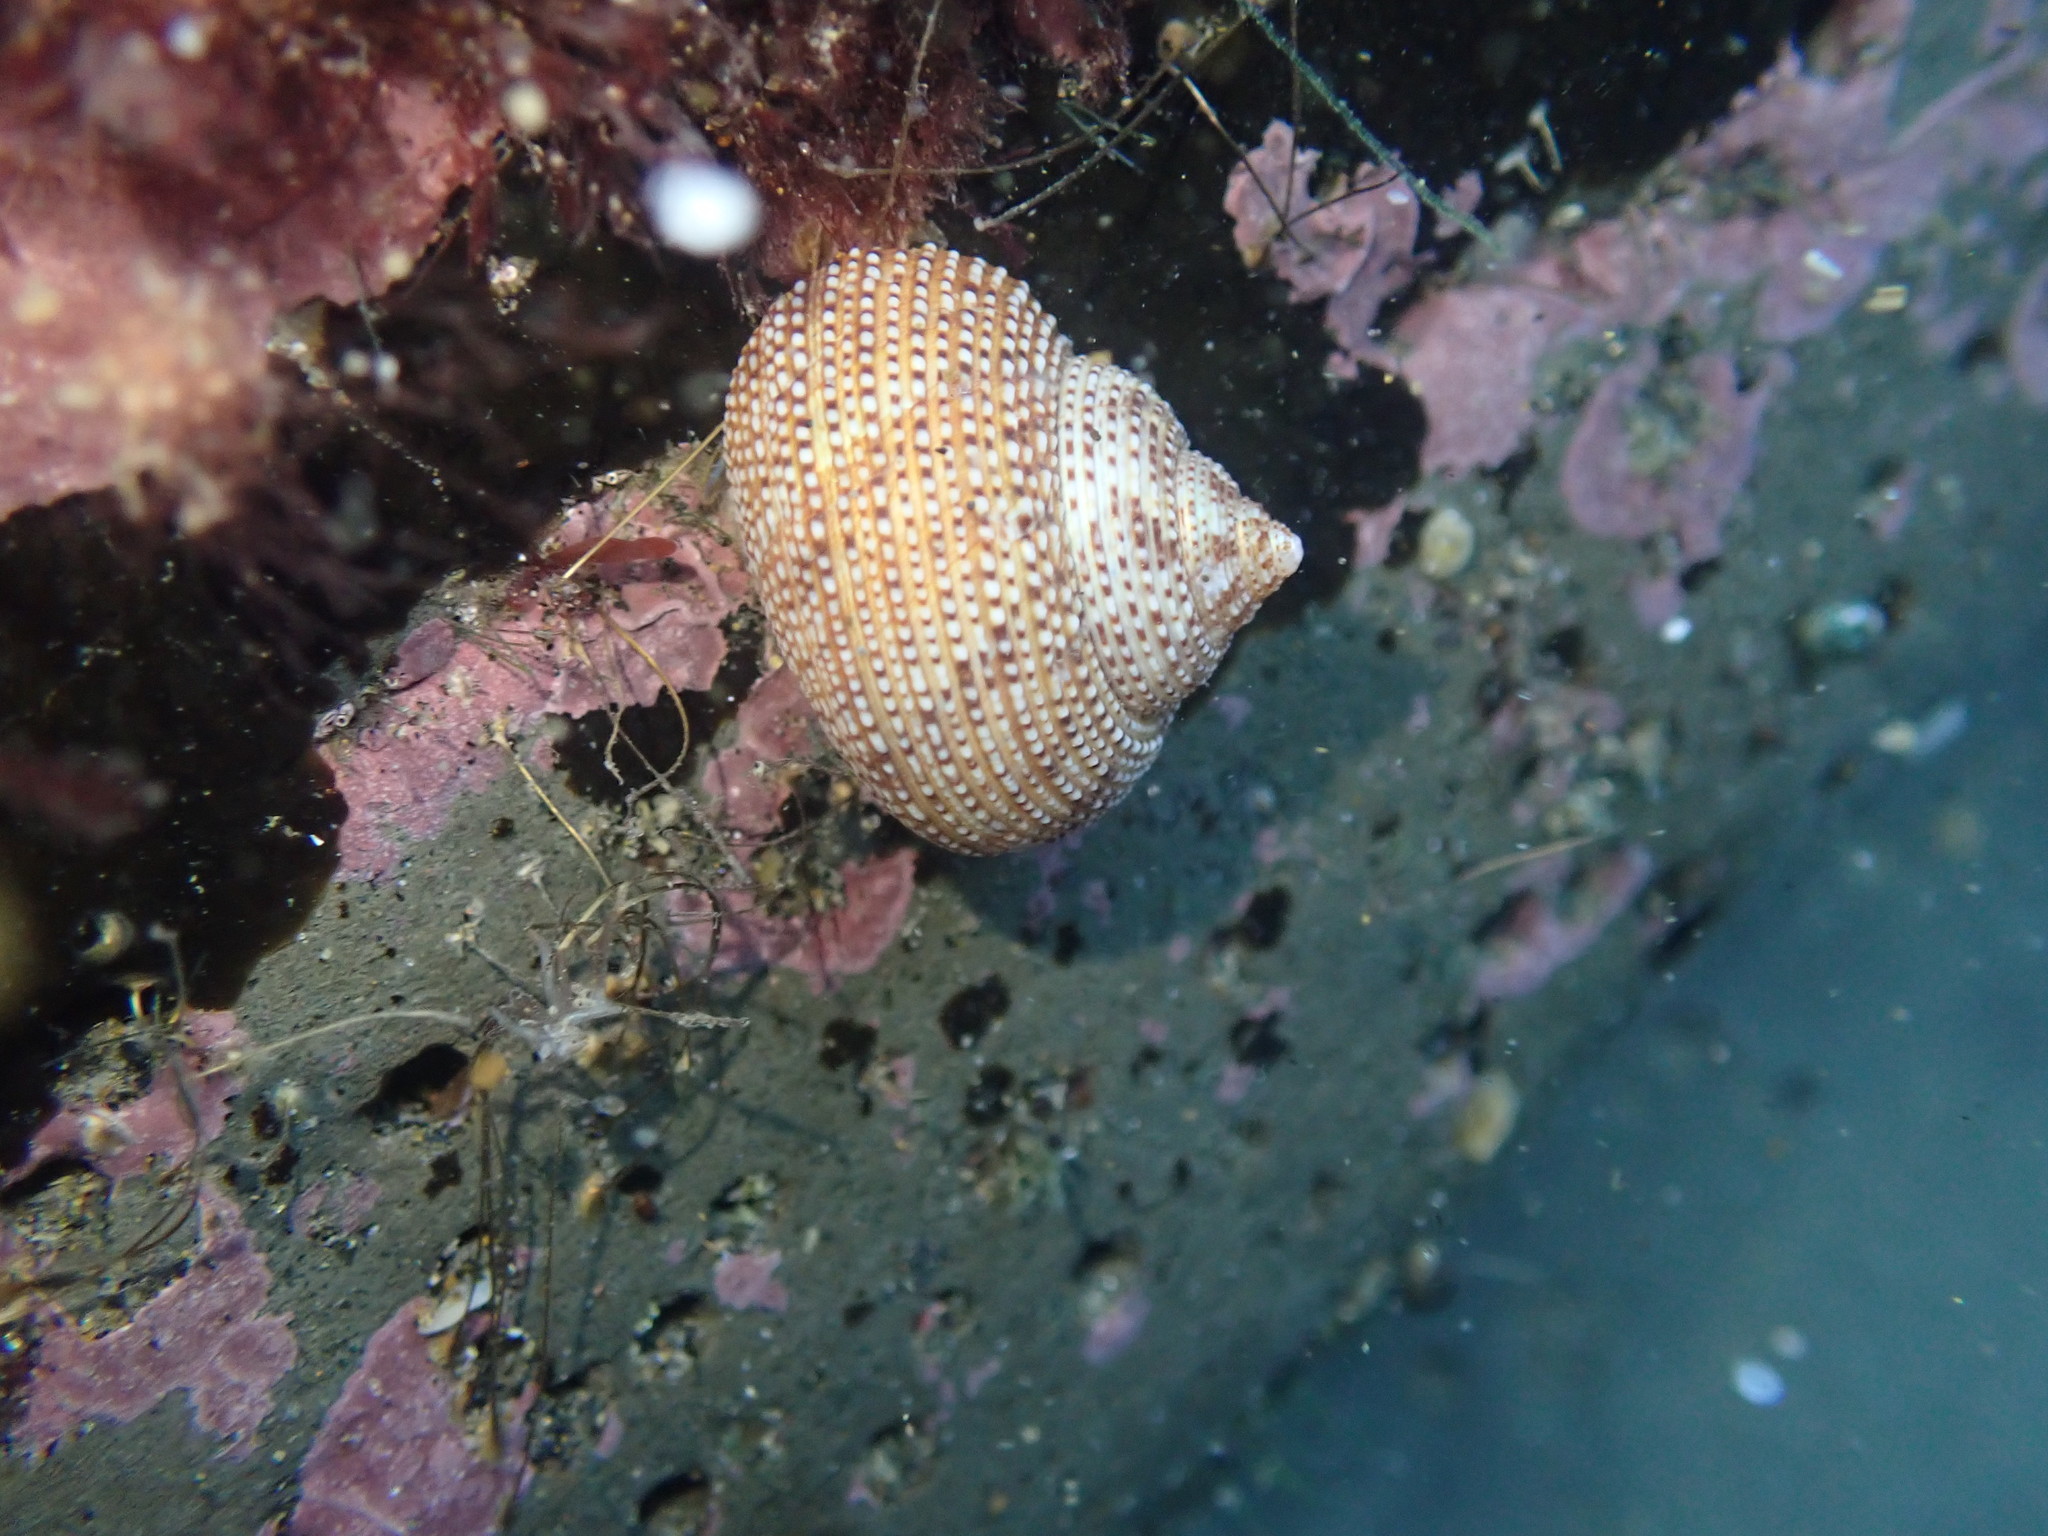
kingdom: Animalia
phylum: Mollusca
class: Gastropoda
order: Trochida
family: Calliostomatidae
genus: Maurea
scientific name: Maurea punctulata
